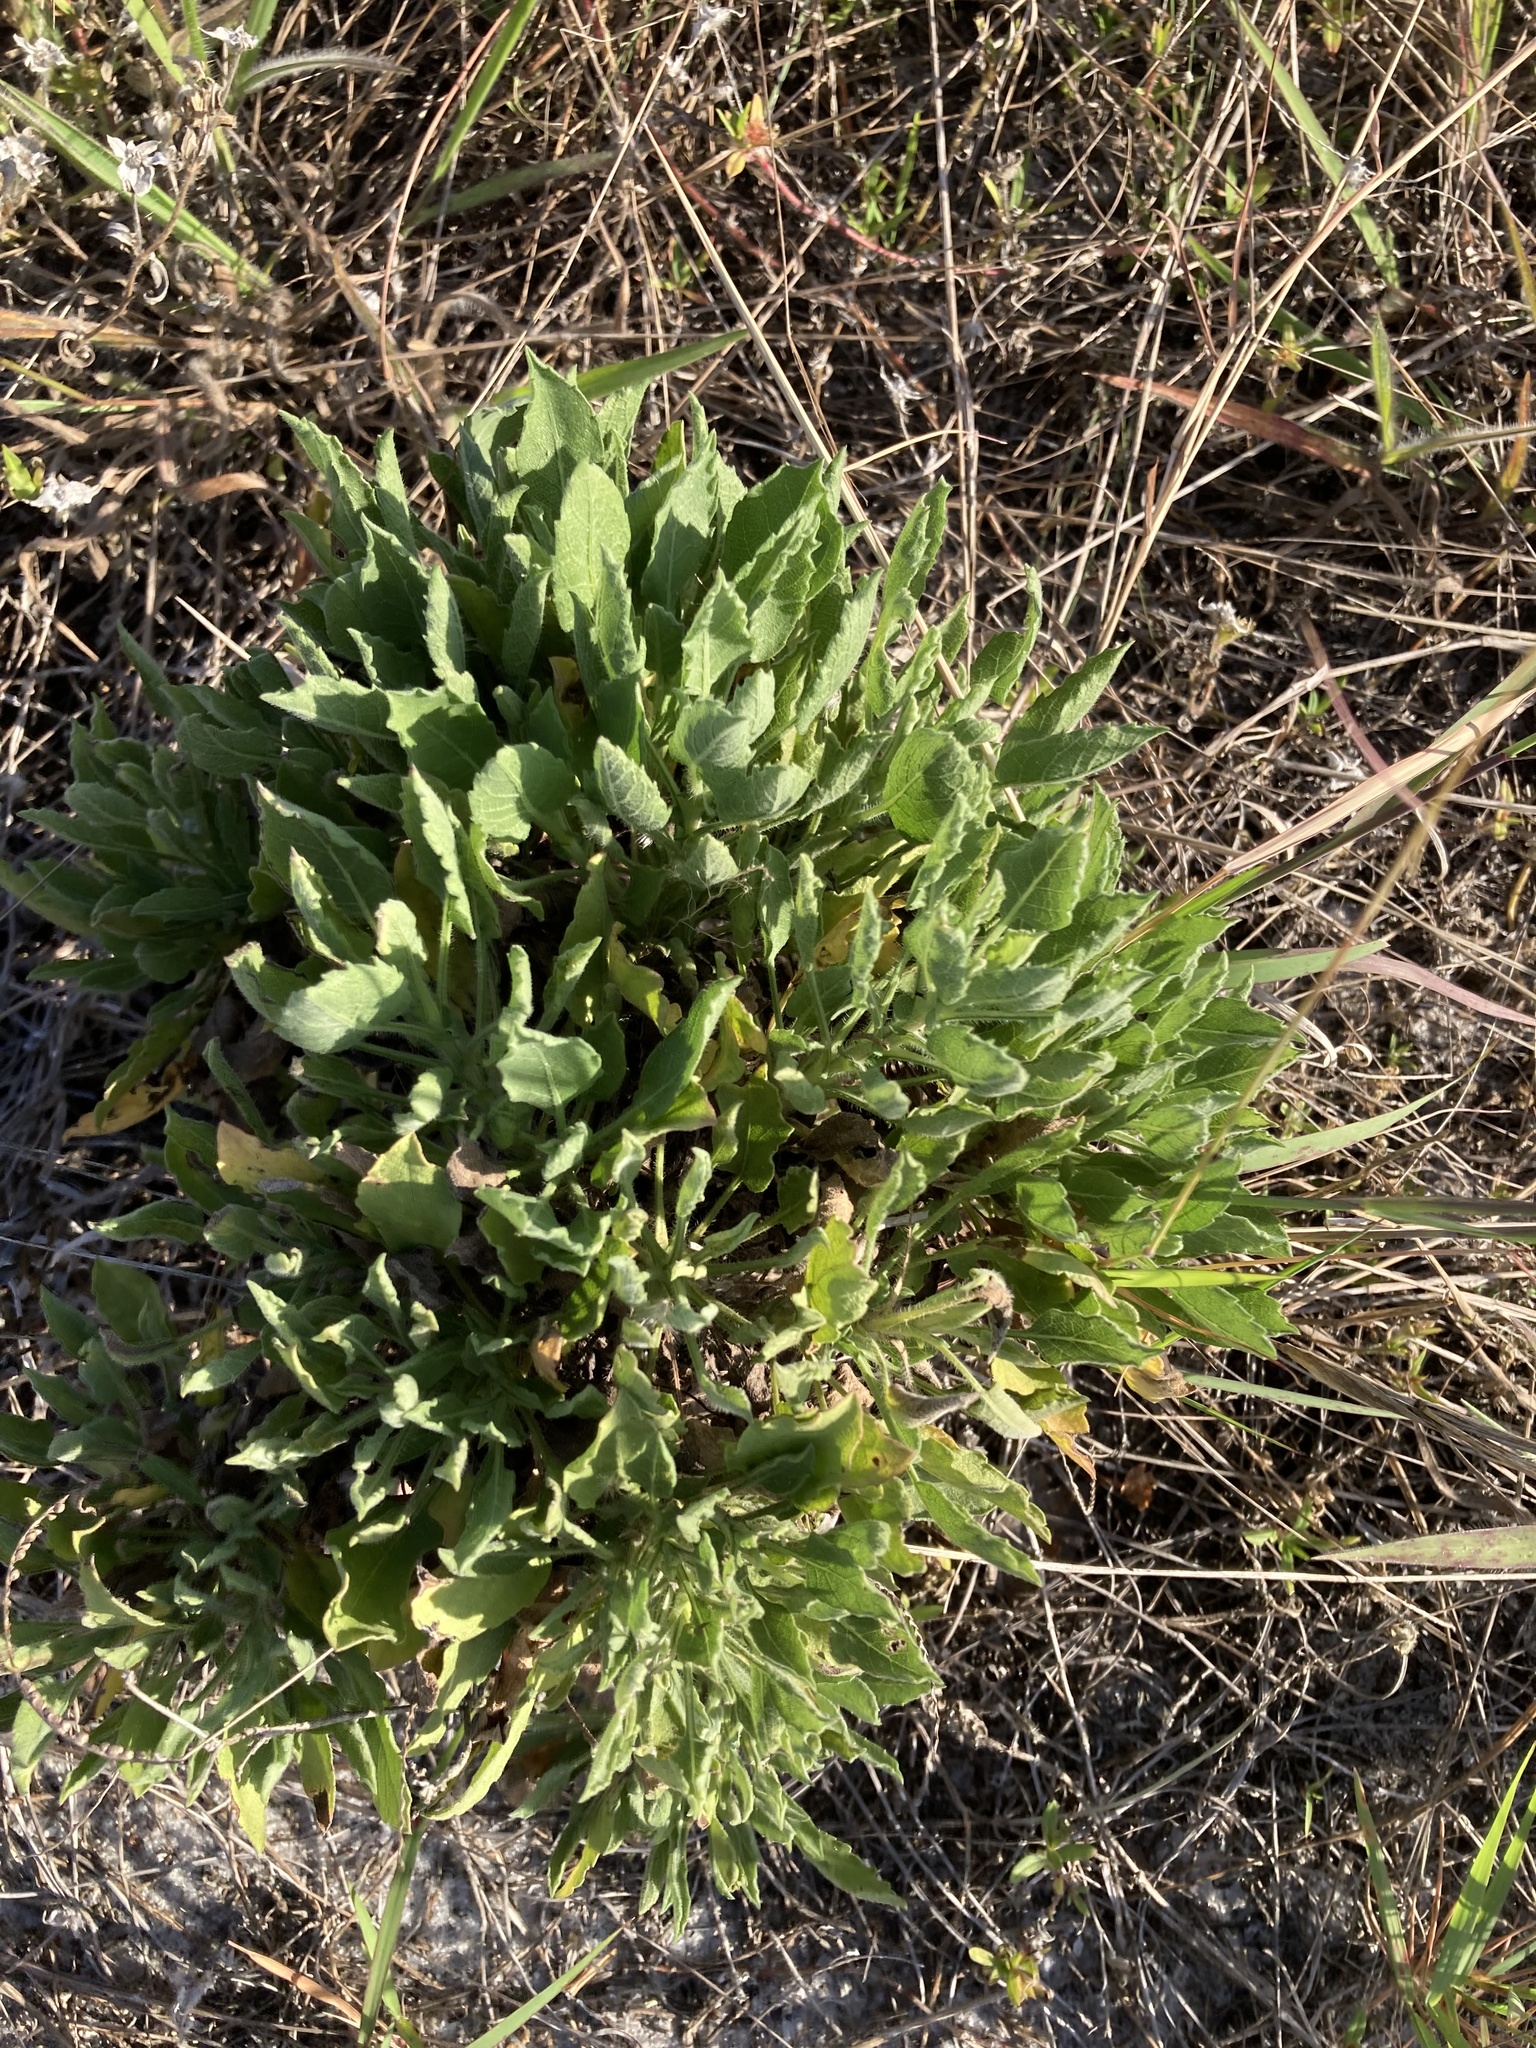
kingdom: Plantae
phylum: Tracheophyta
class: Magnoliopsida
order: Asterales
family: Asteraceae
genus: Heterotheca
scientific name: Heterotheca subaxillaris
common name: Camphorweed
